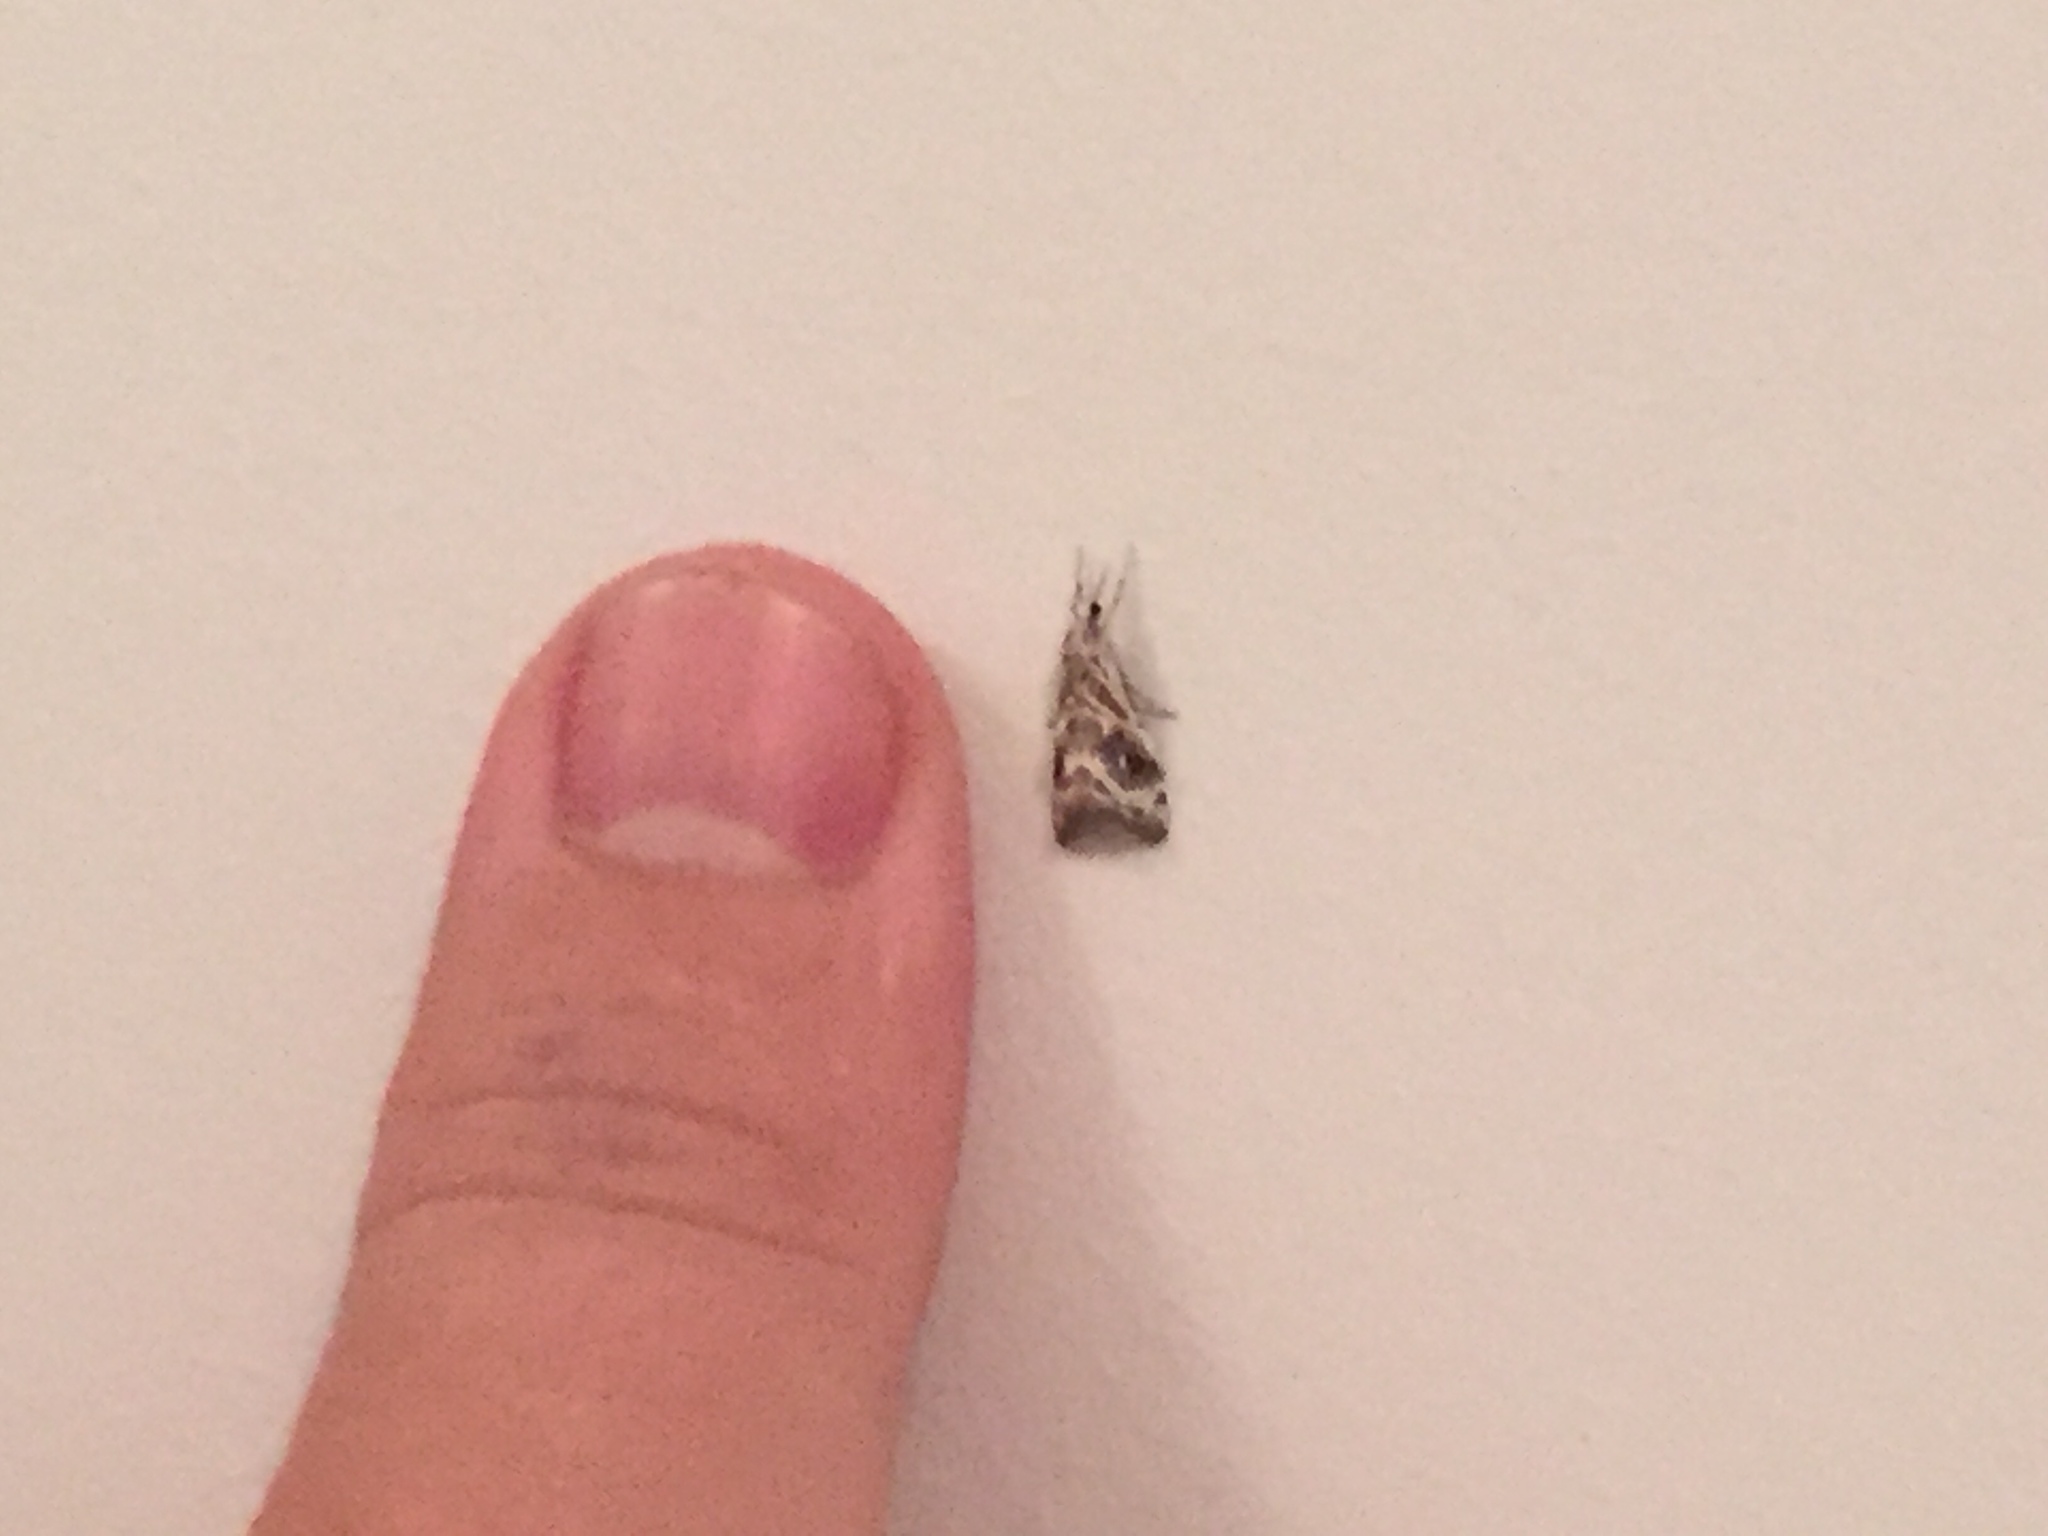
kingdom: Animalia
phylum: Arthropoda
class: Insecta
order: Lepidoptera
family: Crambidae
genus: Gadira
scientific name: Gadira acerella
